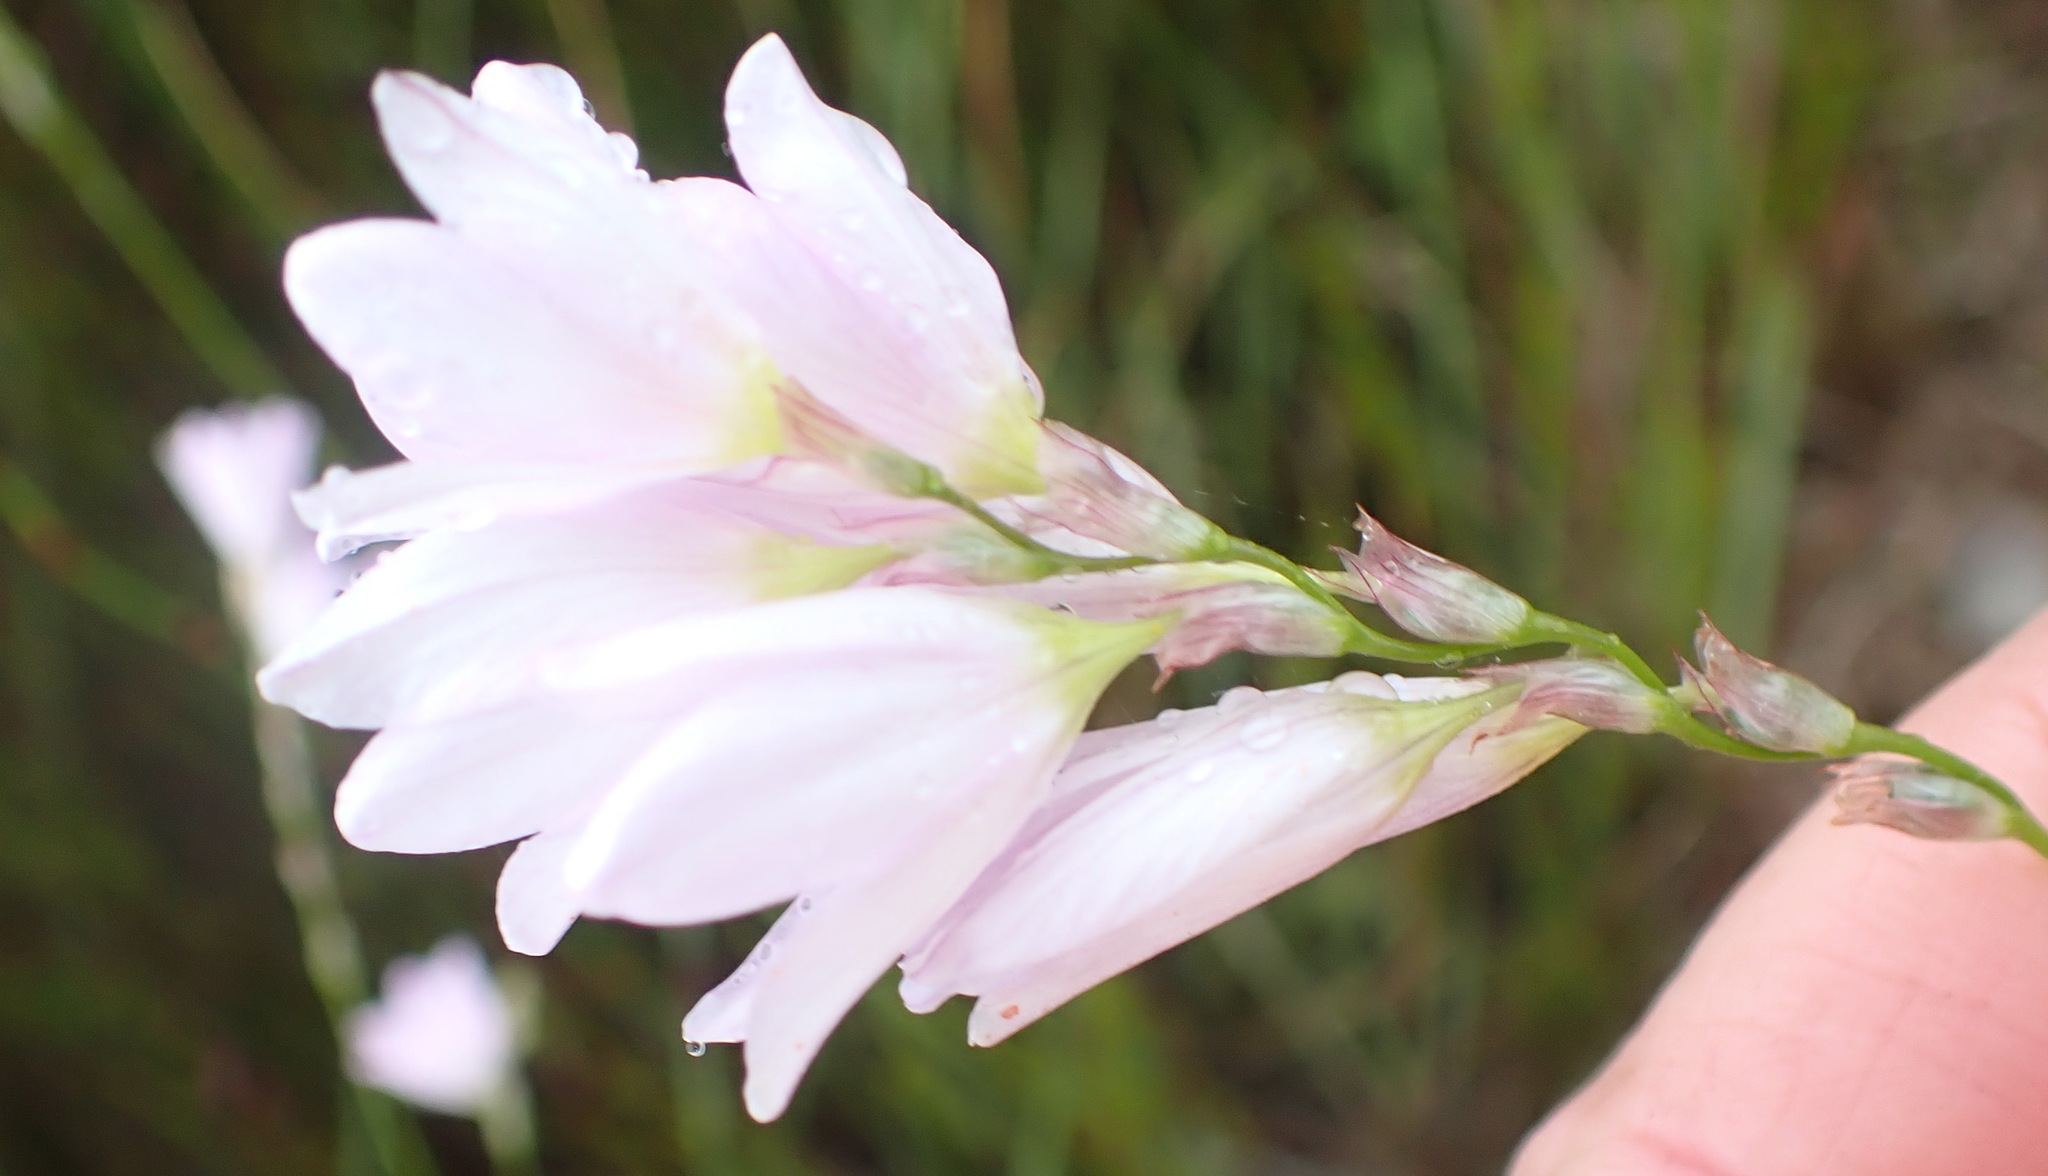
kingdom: Plantae
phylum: Tracheophyta
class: Liliopsida
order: Asparagales
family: Iridaceae
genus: Ixia
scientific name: Ixia orientalis
